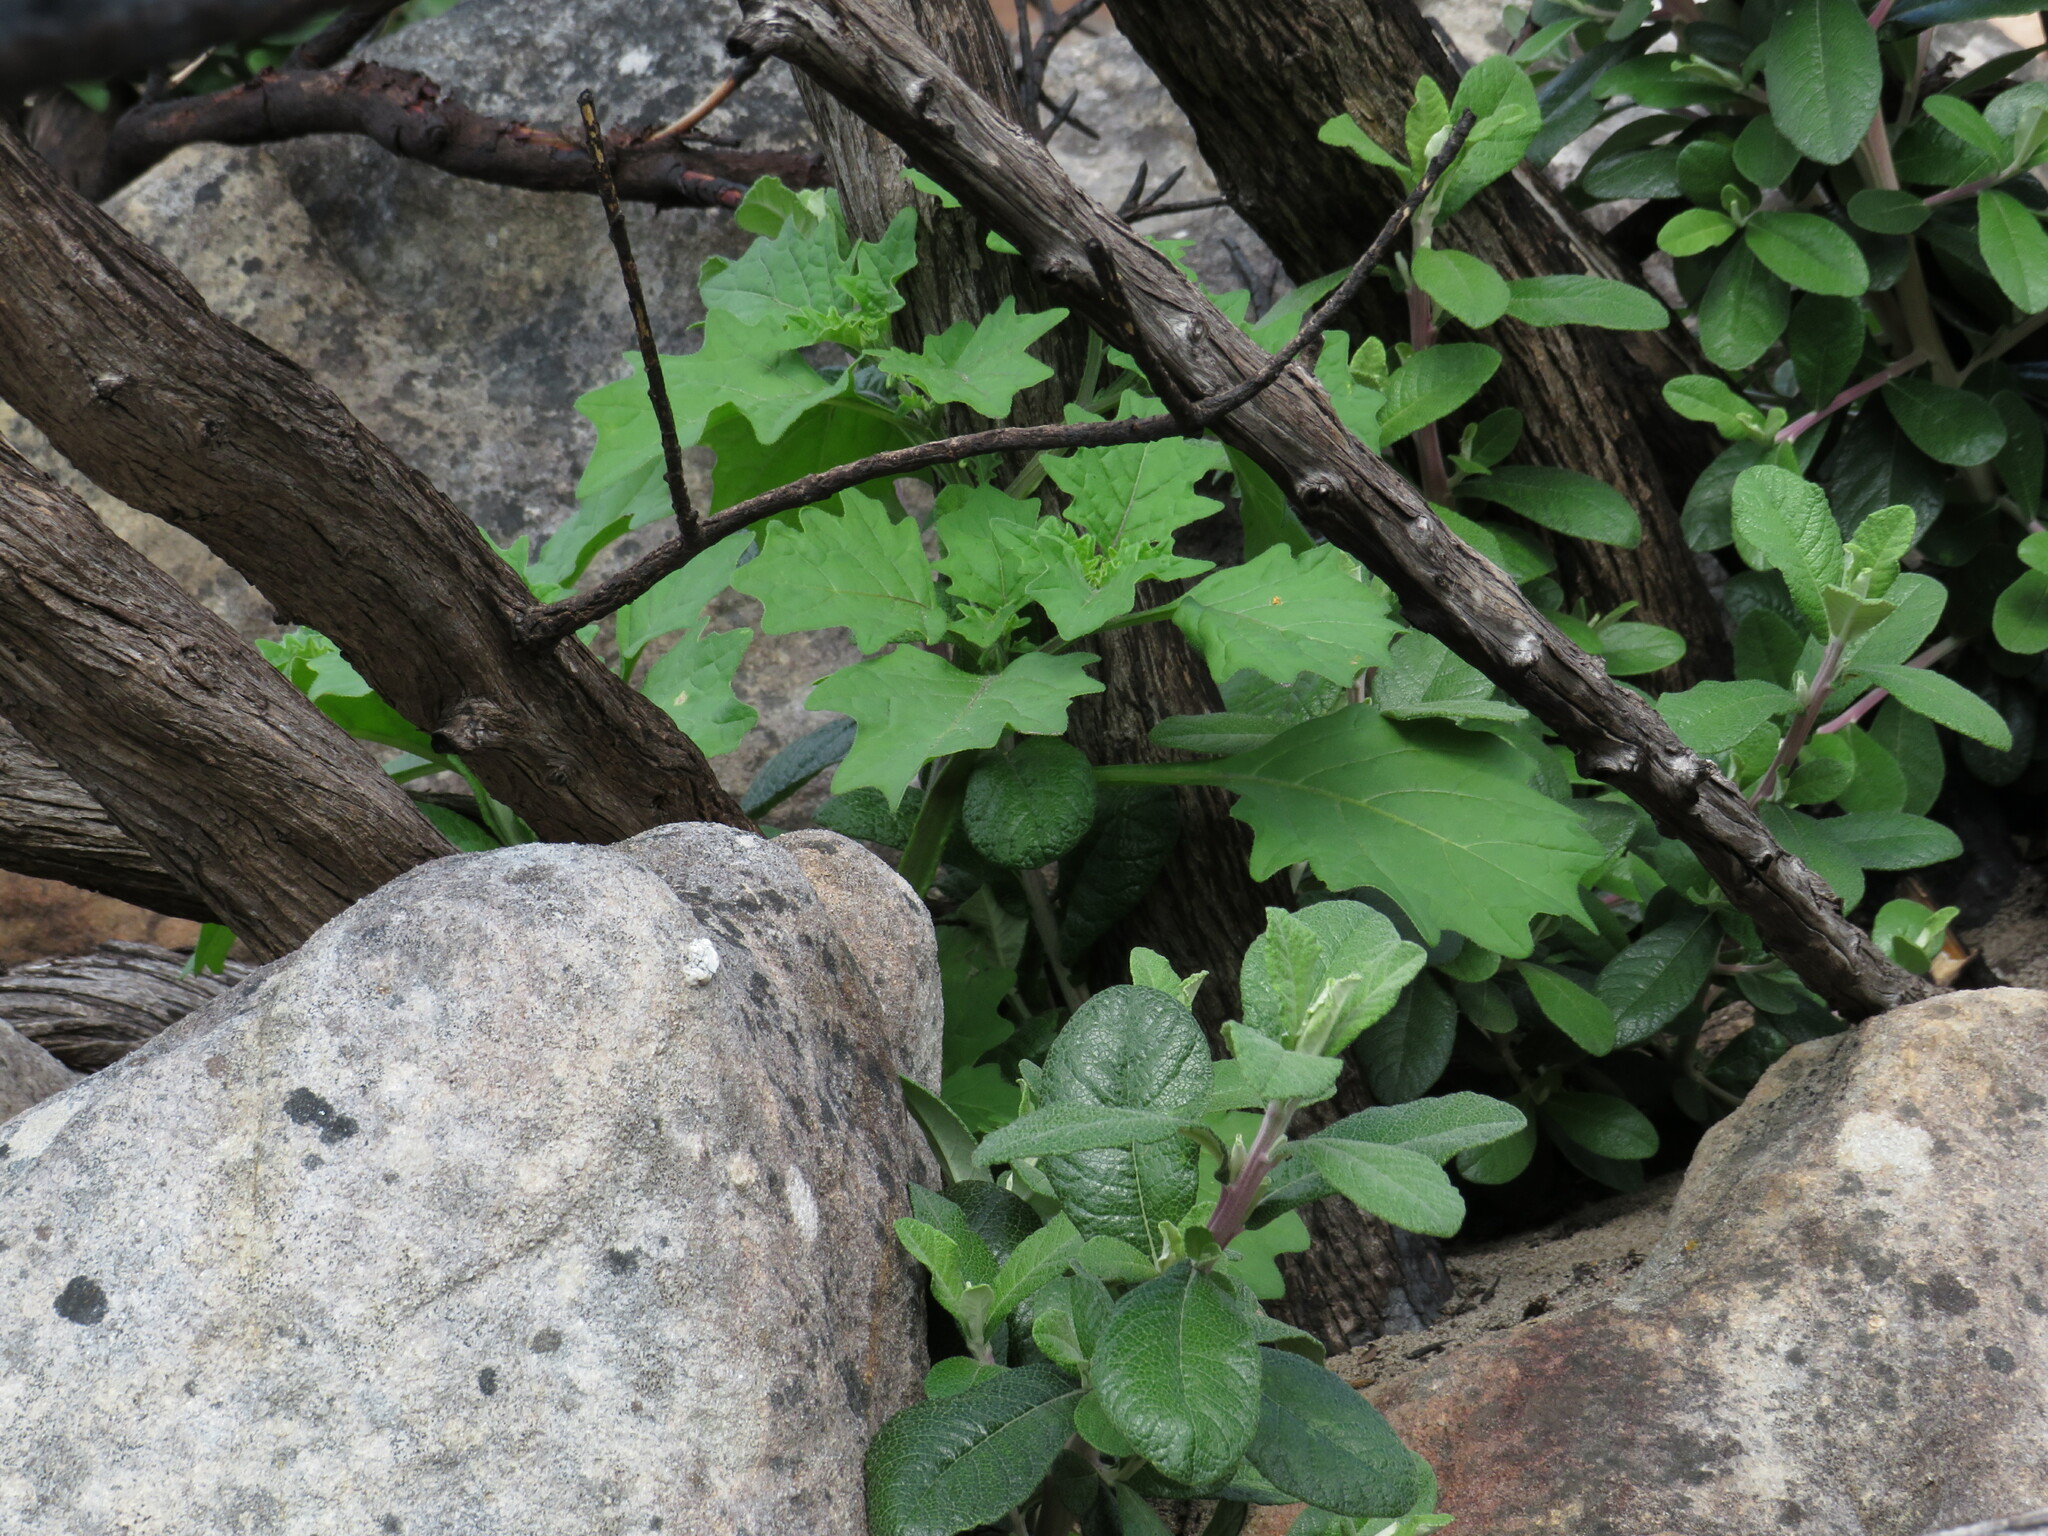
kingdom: Plantae
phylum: Tracheophyta
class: Magnoliopsida
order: Solanales
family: Solanaceae
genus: Solanum
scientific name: Solanum retroflexum
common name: Wonderberry
